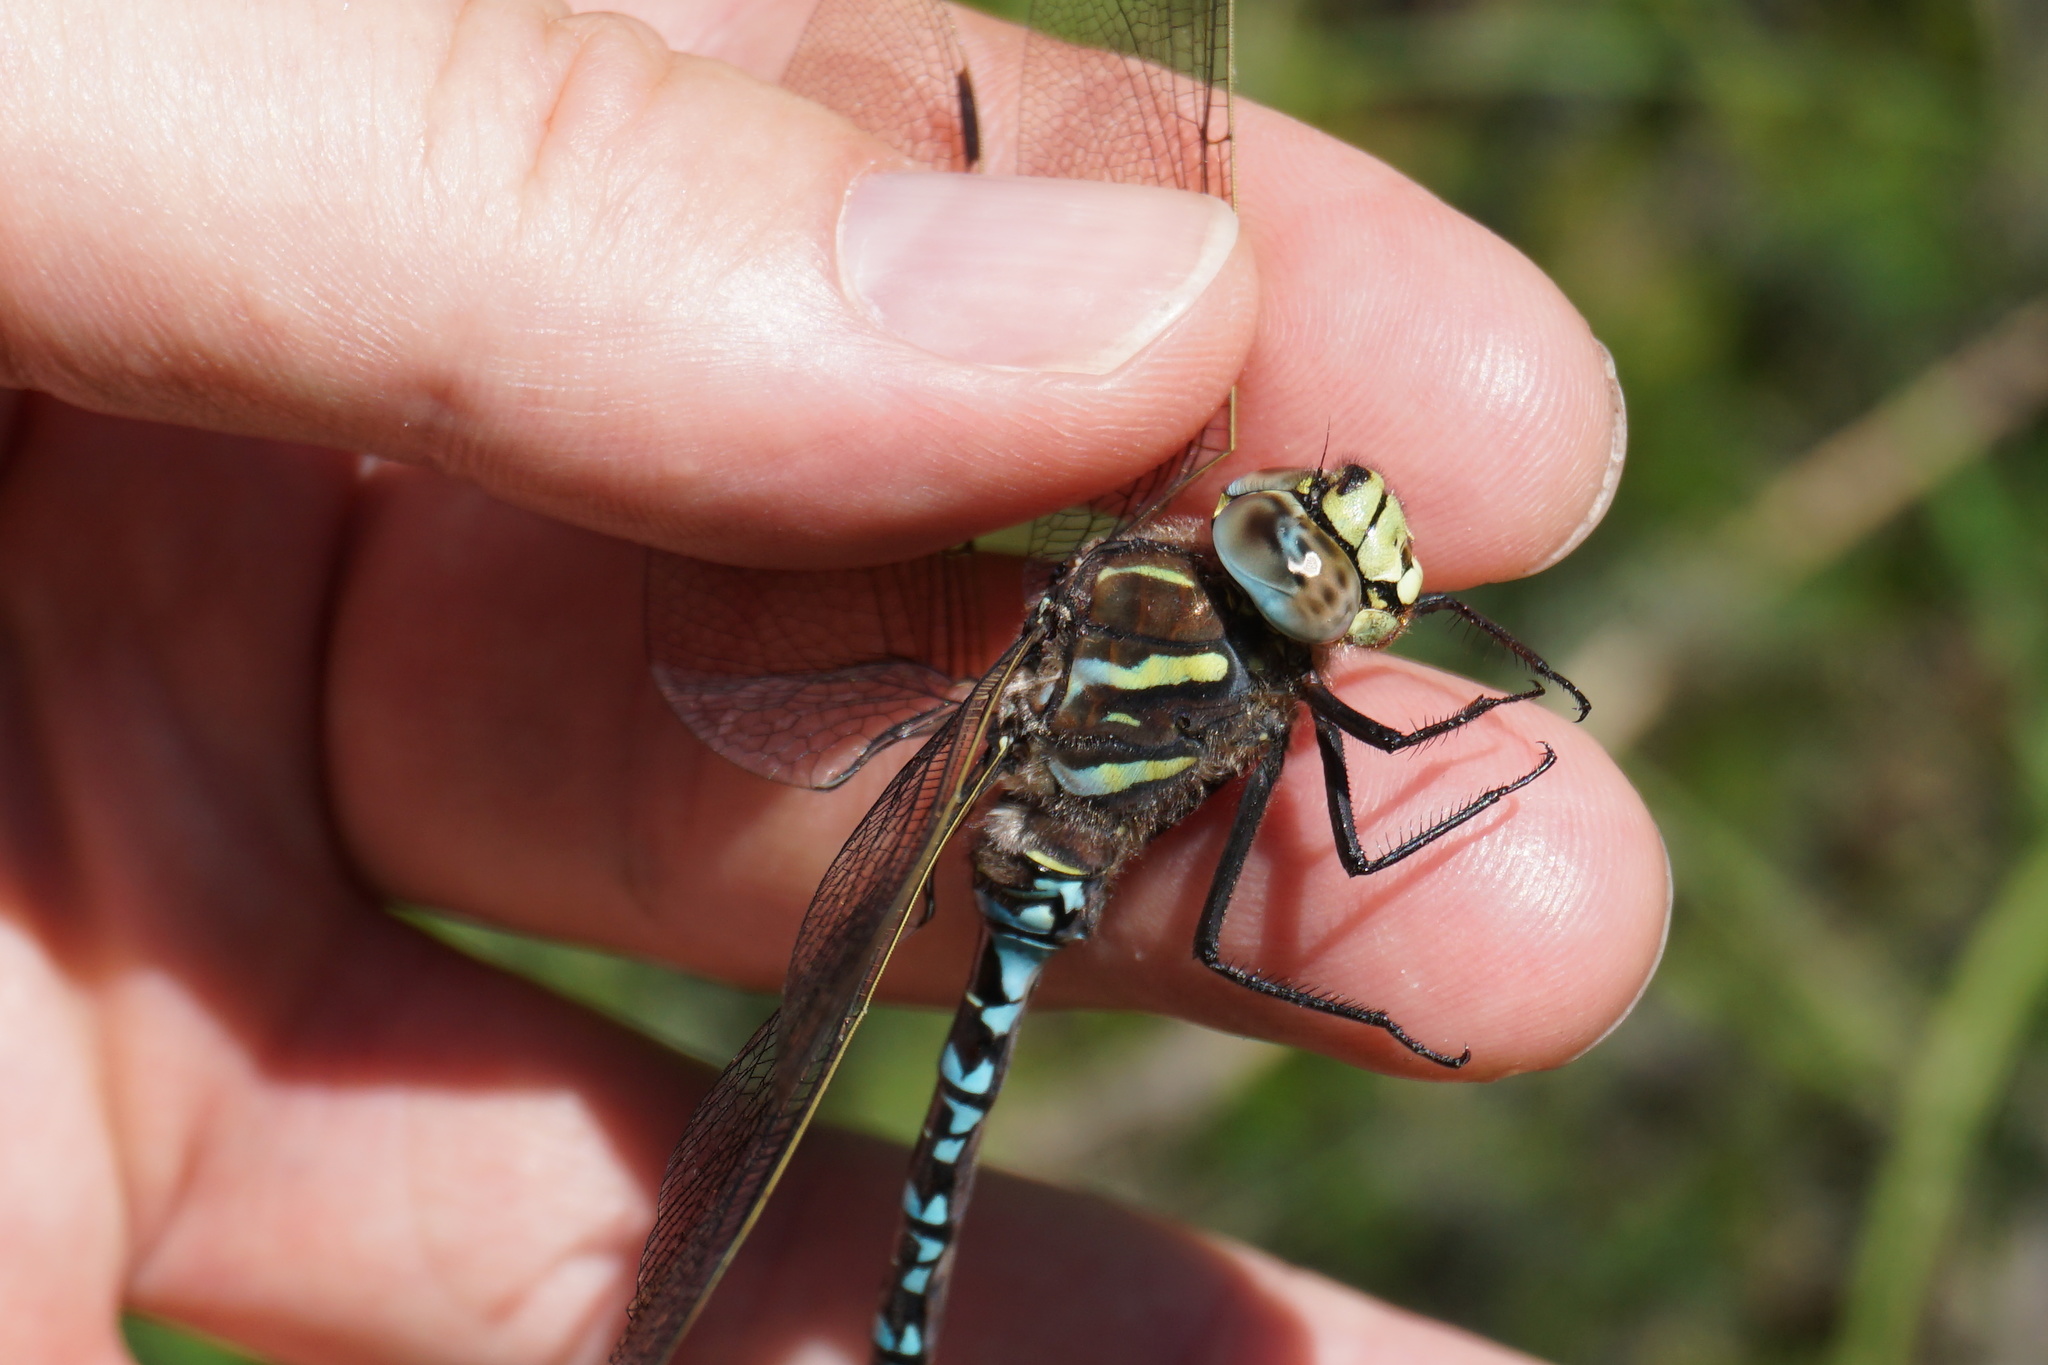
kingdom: Animalia
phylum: Arthropoda
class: Insecta
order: Odonata
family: Aeshnidae
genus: Aeshna
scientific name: Aeshna juncea
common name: Moorland hawker
